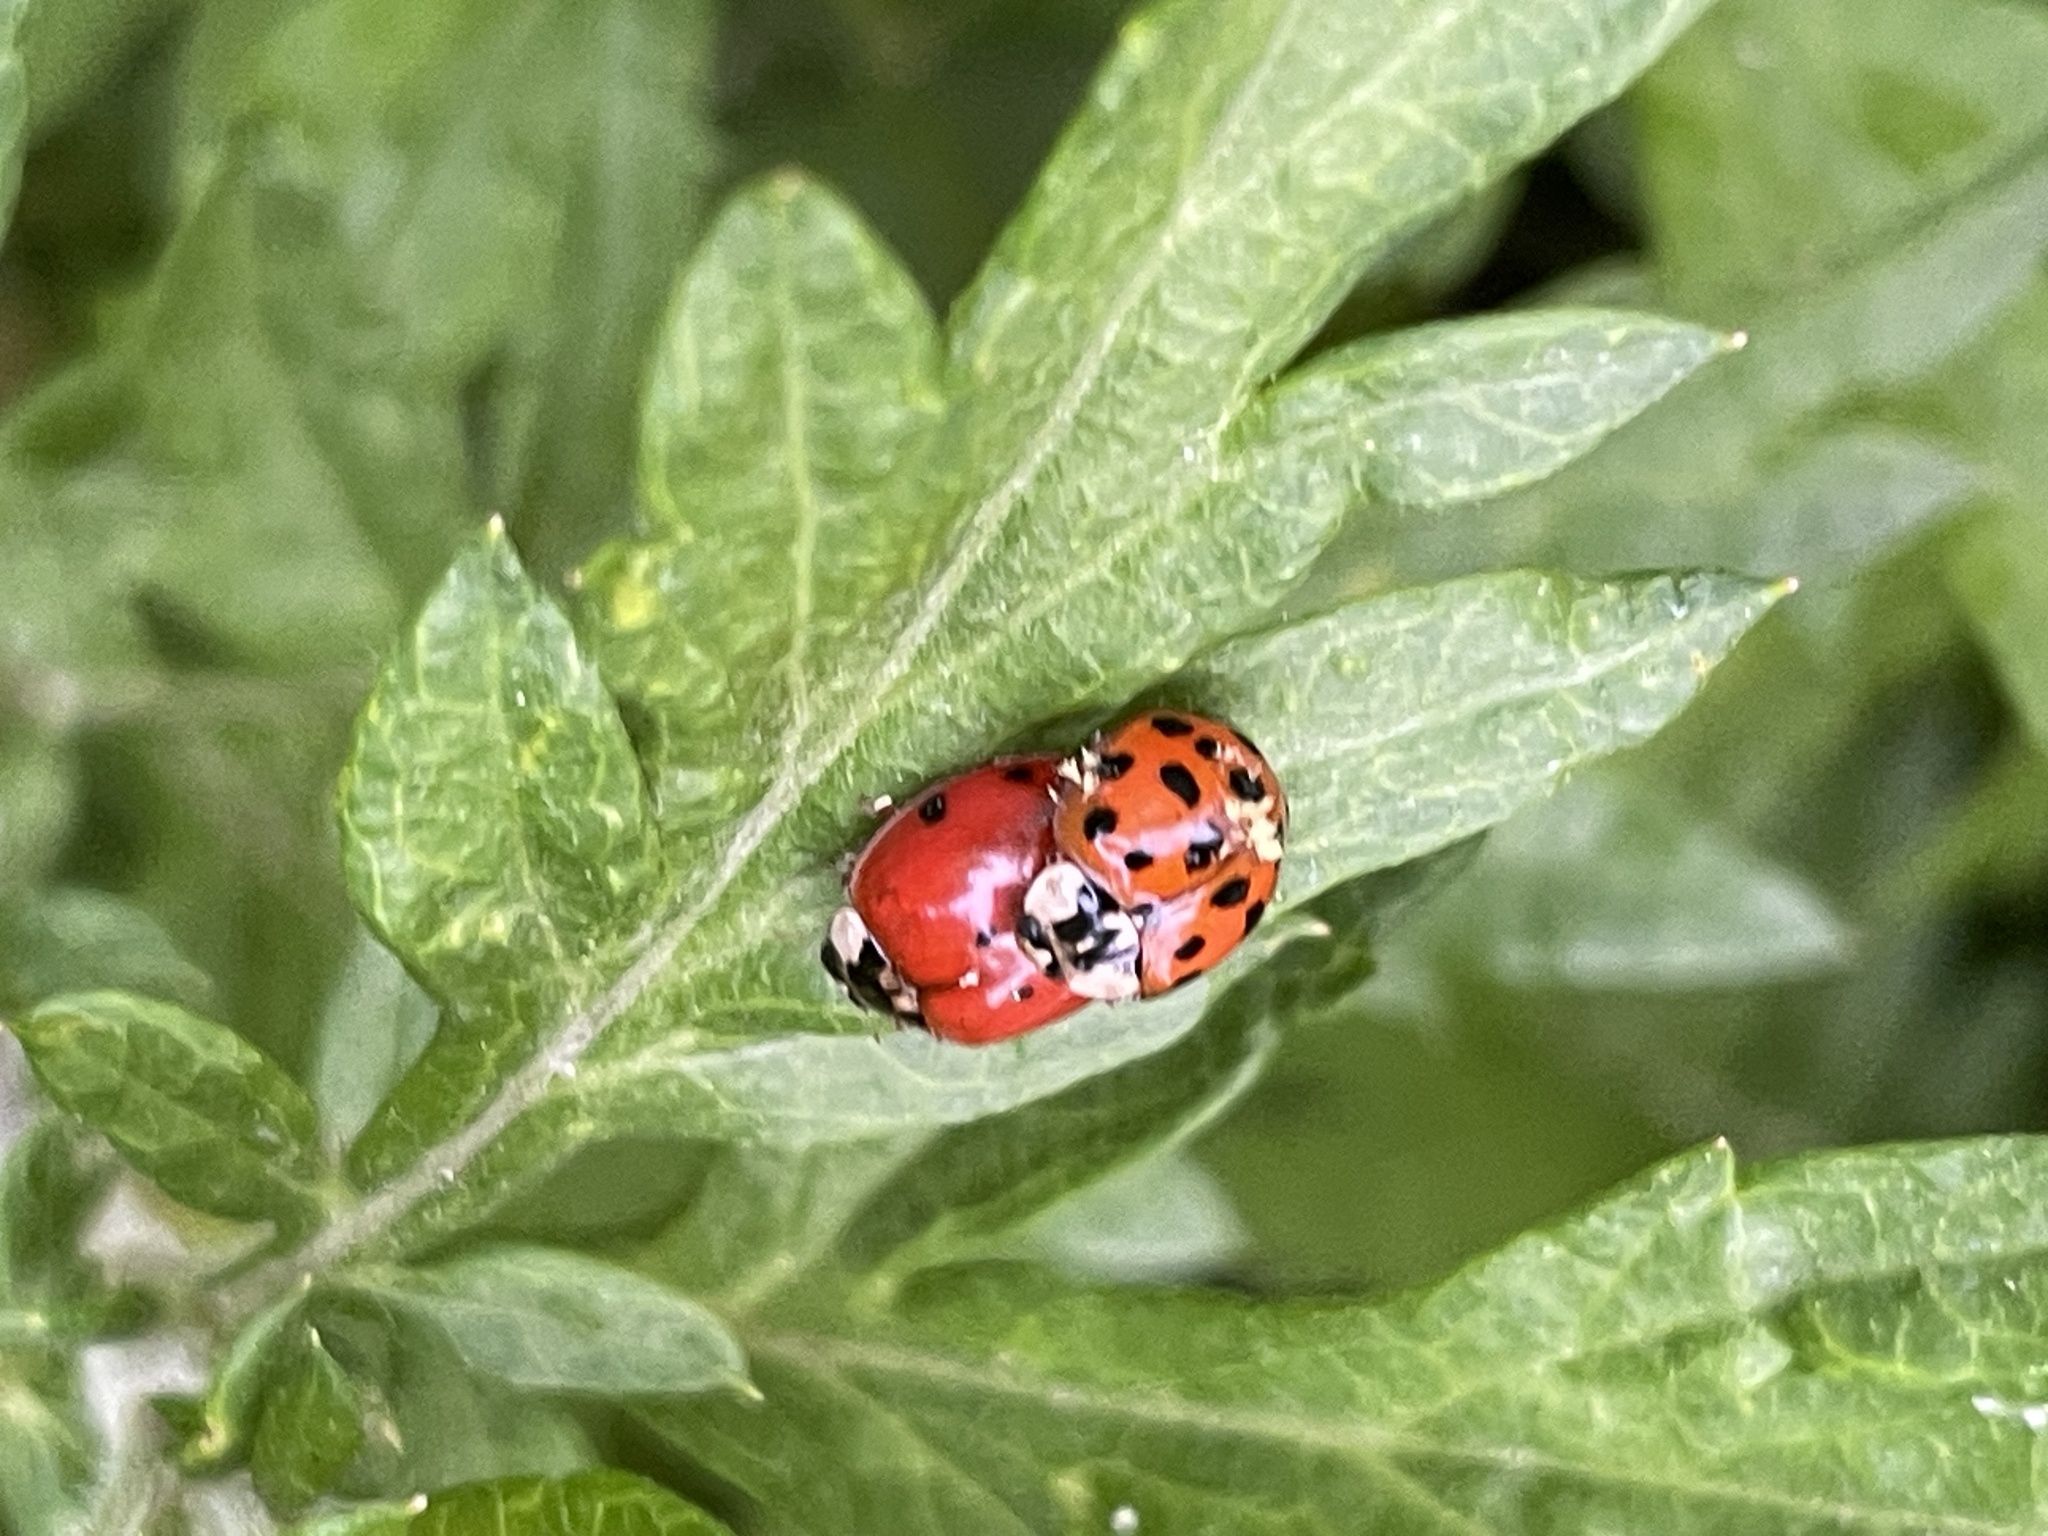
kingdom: Animalia
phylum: Arthropoda
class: Insecta
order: Coleoptera
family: Coccinellidae
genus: Harmonia
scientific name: Harmonia axyridis
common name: Harlequin ladybird
